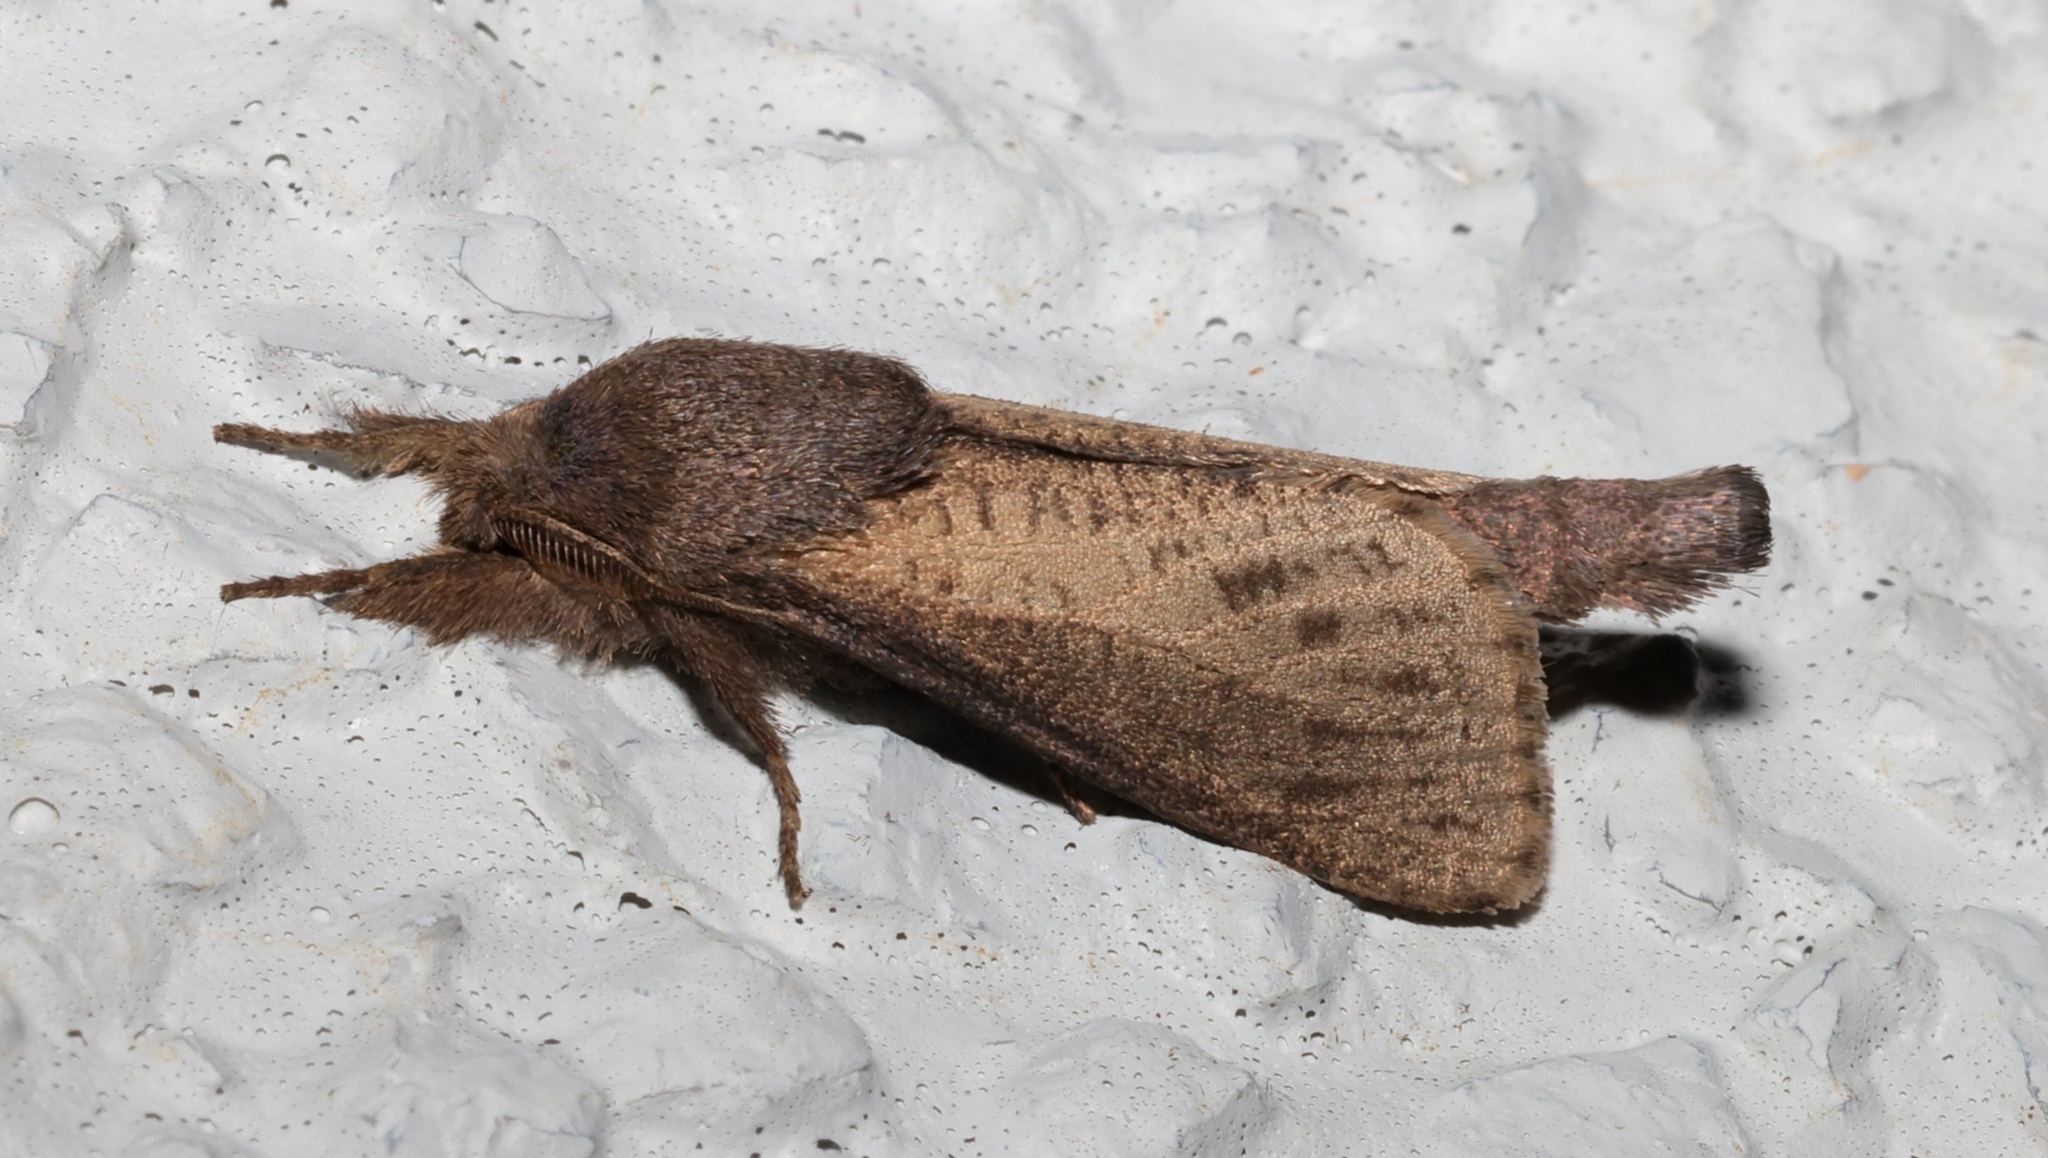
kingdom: Animalia
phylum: Arthropoda
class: Insecta
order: Lepidoptera
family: Cossidae
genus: Phragmataecia
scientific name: Phragmataecia fusca
